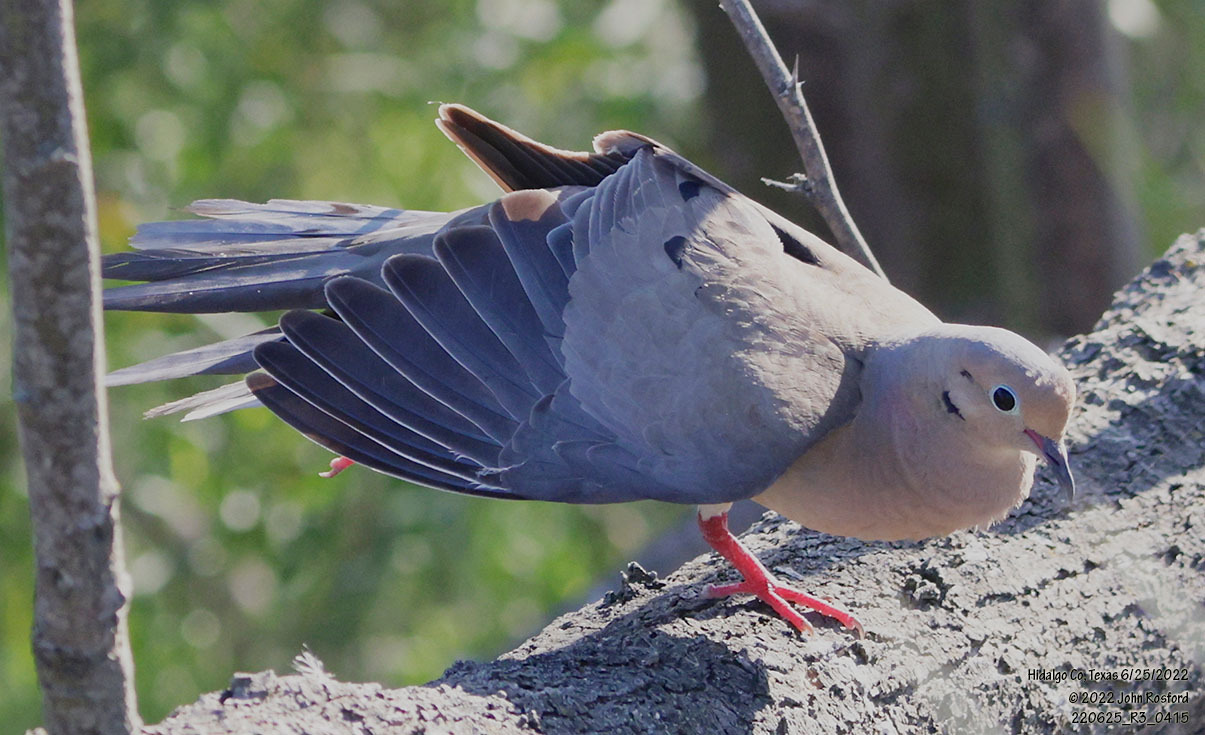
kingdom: Animalia
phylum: Chordata
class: Aves
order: Columbiformes
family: Columbidae
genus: Zenaida
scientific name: Zenaida macroura
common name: Mourning dove
